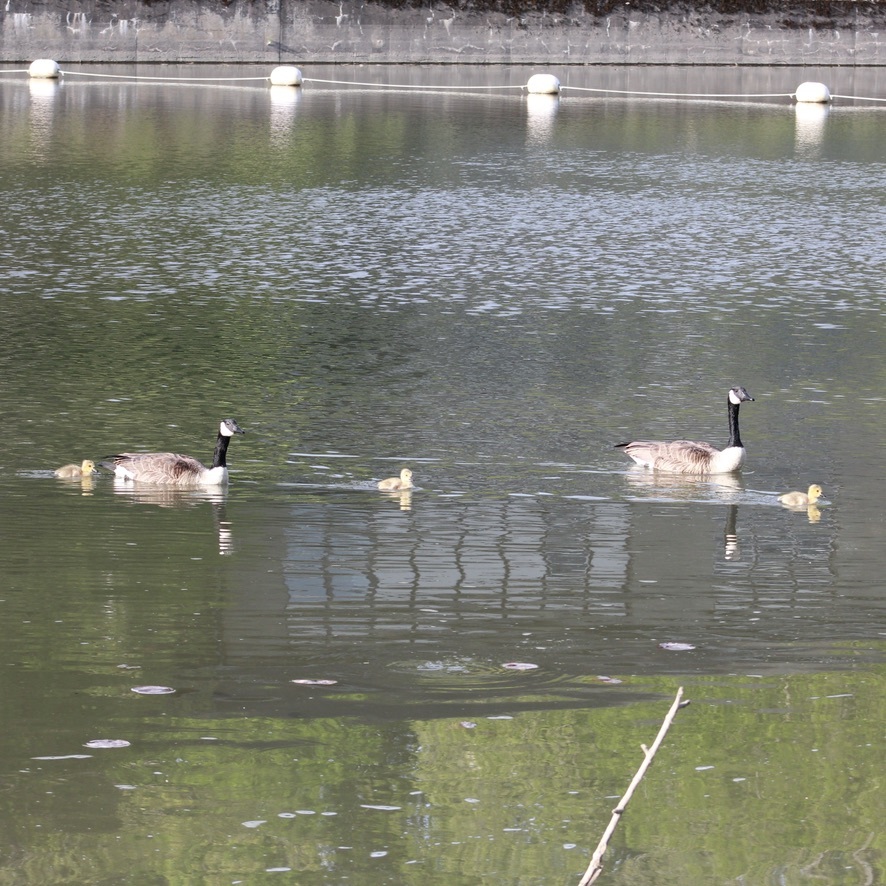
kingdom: Animalia
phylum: Chordata
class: Aves
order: Anseriformes
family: Anatidae
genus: Branta
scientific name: Branta canadensis
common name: Canada goose
